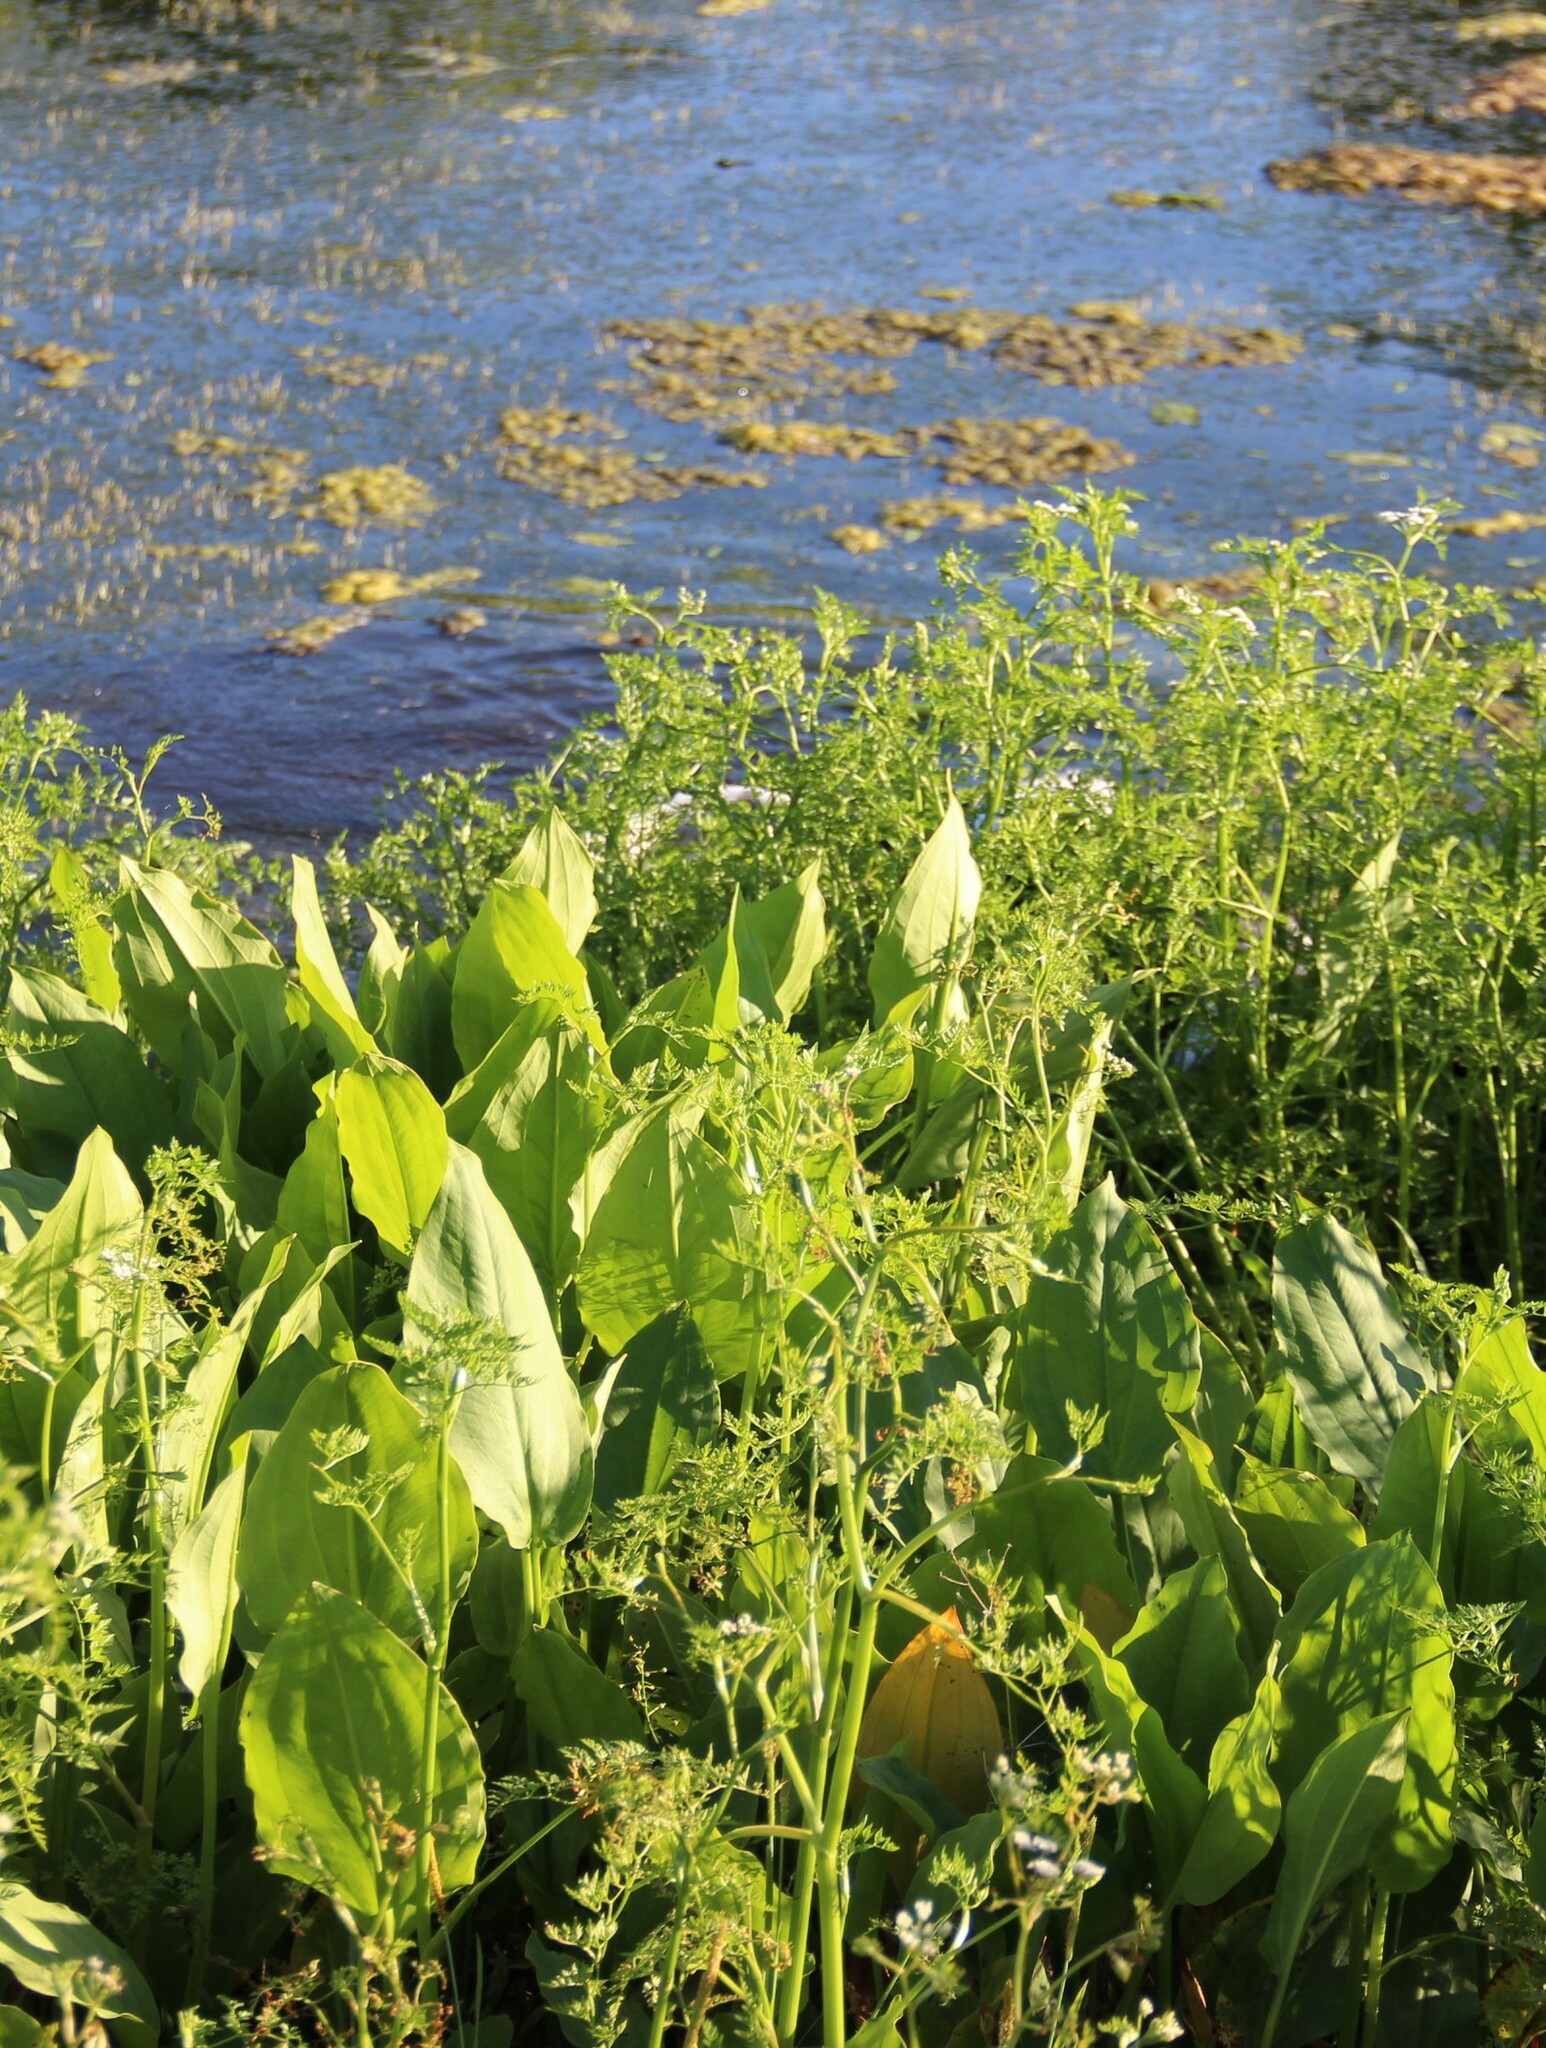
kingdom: Plantae
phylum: Tracheophyta
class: Liliopsida
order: Alismatales
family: Alismataceae
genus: Alisma
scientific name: Alisma plantago-aquatica
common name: Water-plantain
